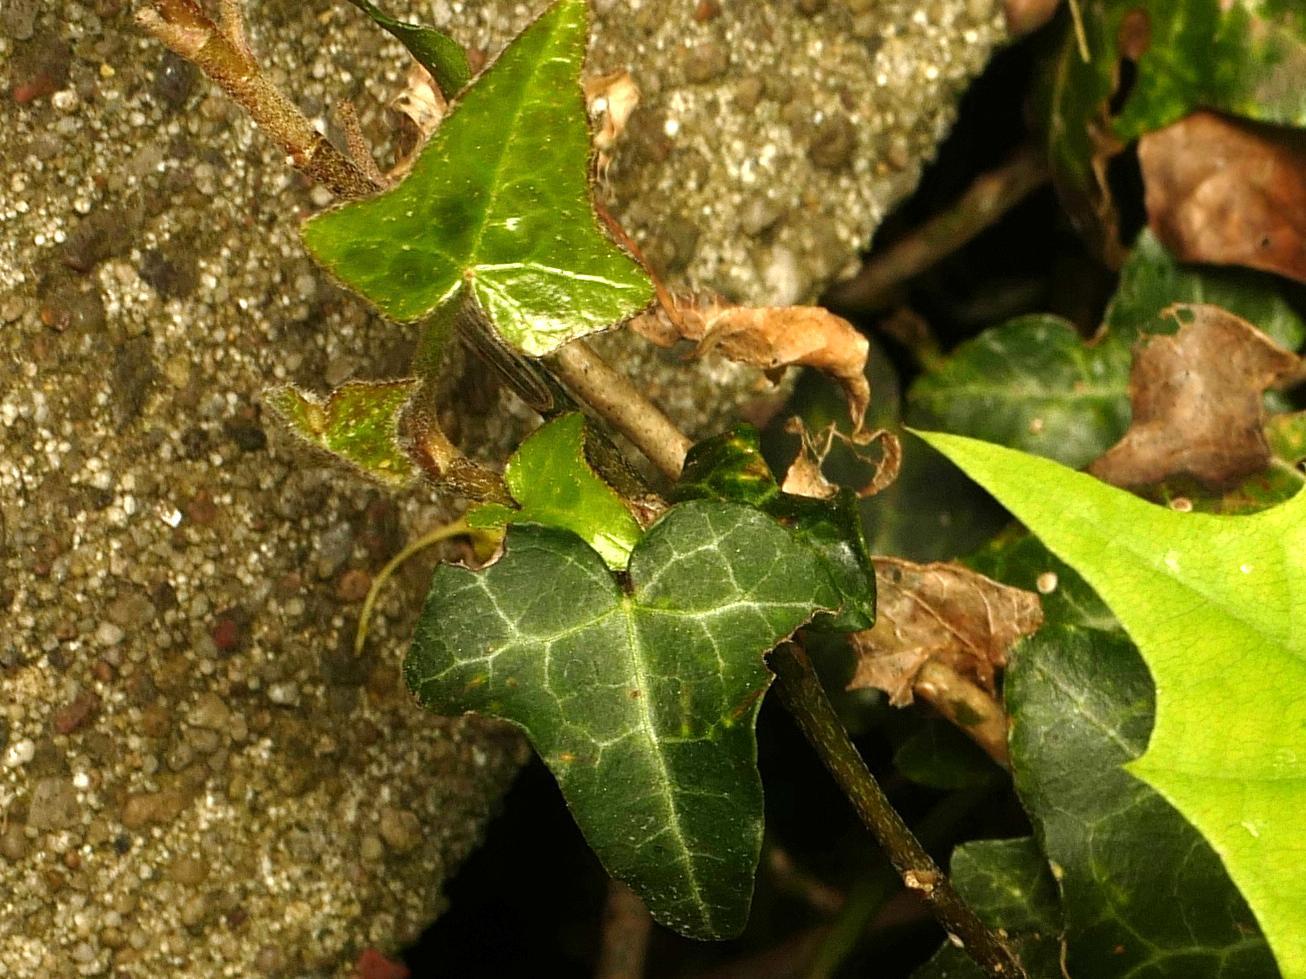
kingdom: Plantae
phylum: Tracheophyta
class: Magnoliopsida
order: Apiales
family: Araliaceae
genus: Hedera
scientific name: Hedera helix
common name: Ivy
